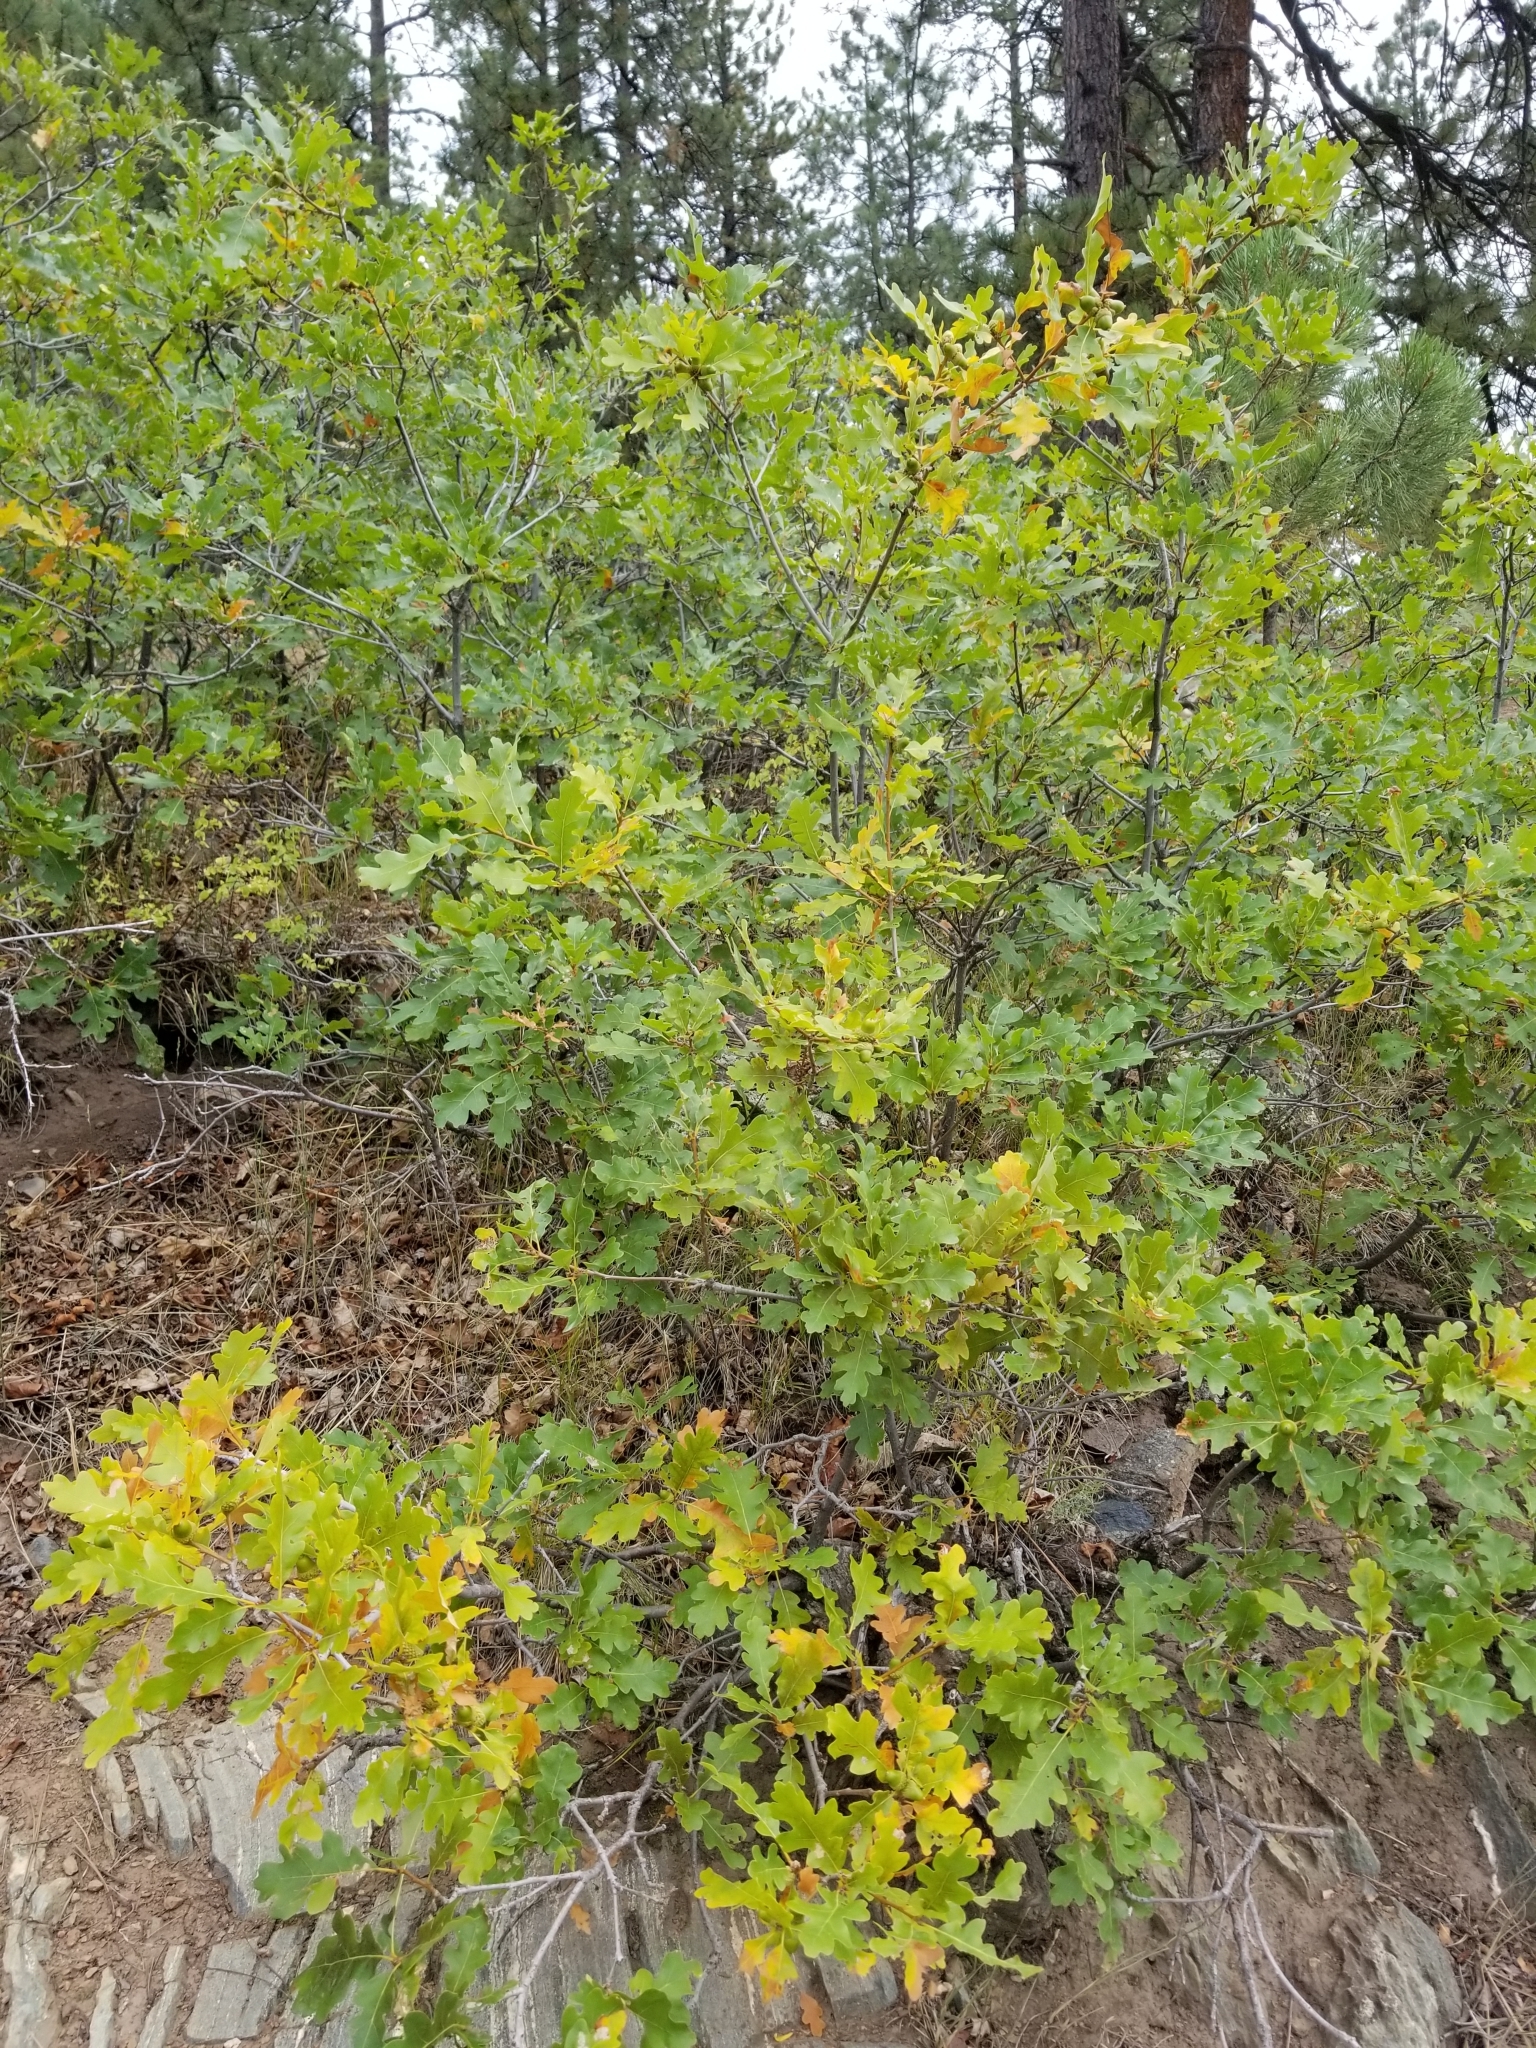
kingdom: Plantae
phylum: Tracheophyta
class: Magnoliopsida
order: Fagales
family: Fagaceae
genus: Quercus
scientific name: Quercus gambelii
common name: Gambel oak
